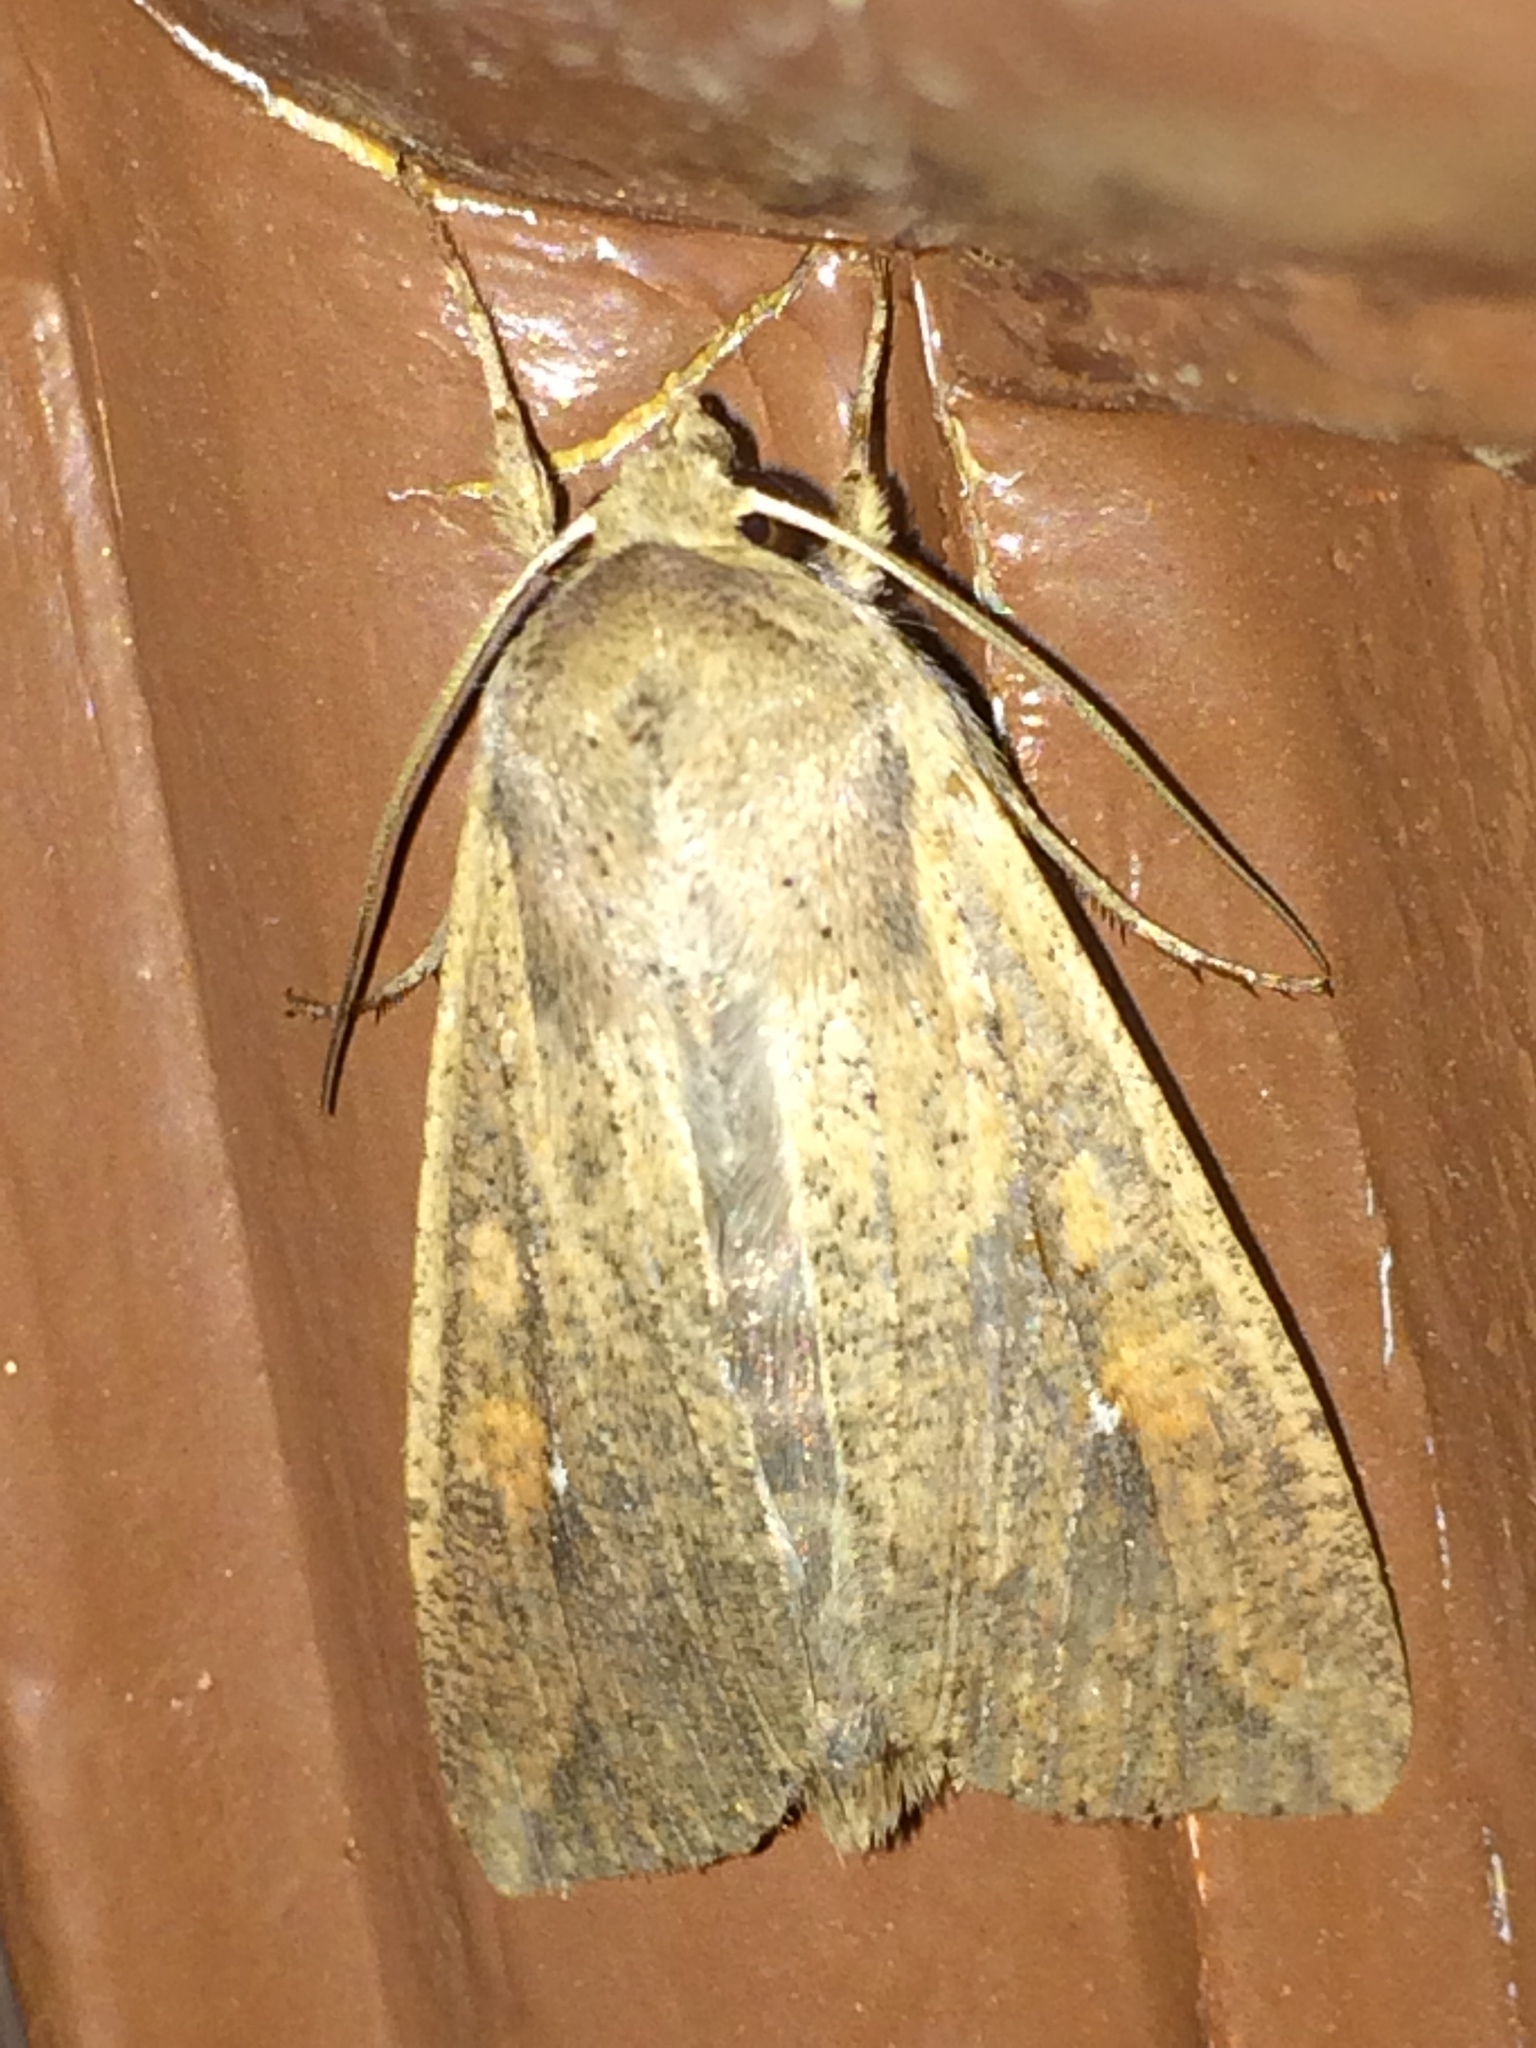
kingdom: Animalia
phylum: Arthropoda
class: Insecta
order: Lepidoptera
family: Noctuidae
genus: Mythimna
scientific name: Mythimna unipuncta
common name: White-speck
